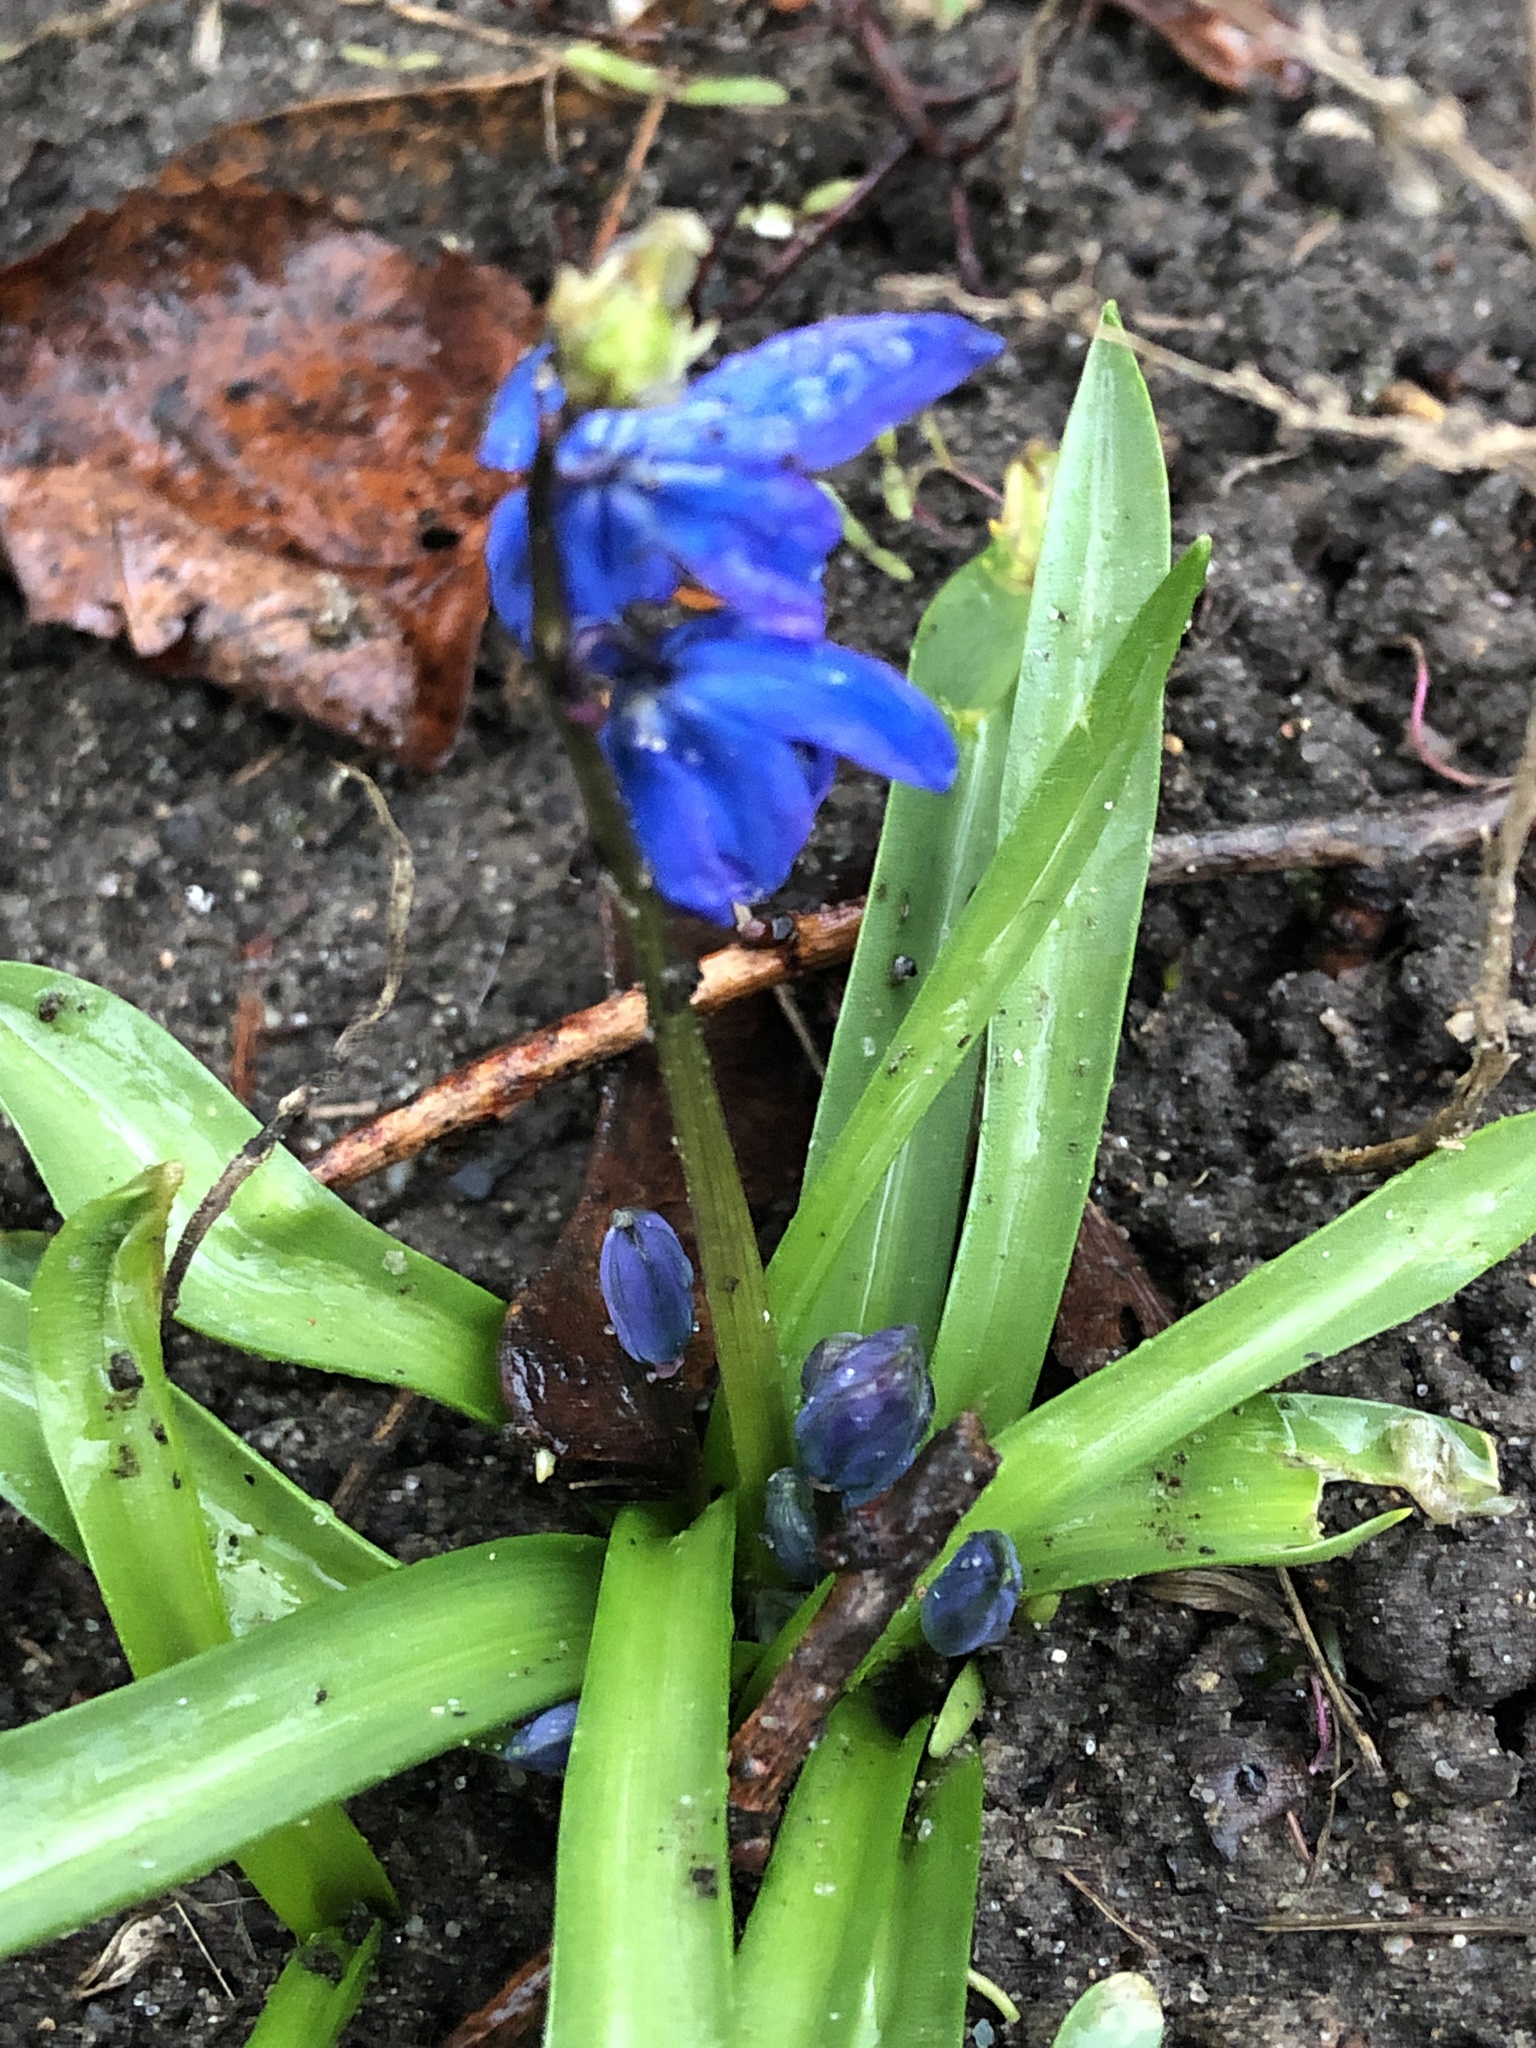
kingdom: Plantae
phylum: Tracheophyta
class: Liliopsida
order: Asparagales
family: Asparagaceae
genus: Scilla
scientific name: Scilla siberica
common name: Siberian squill
